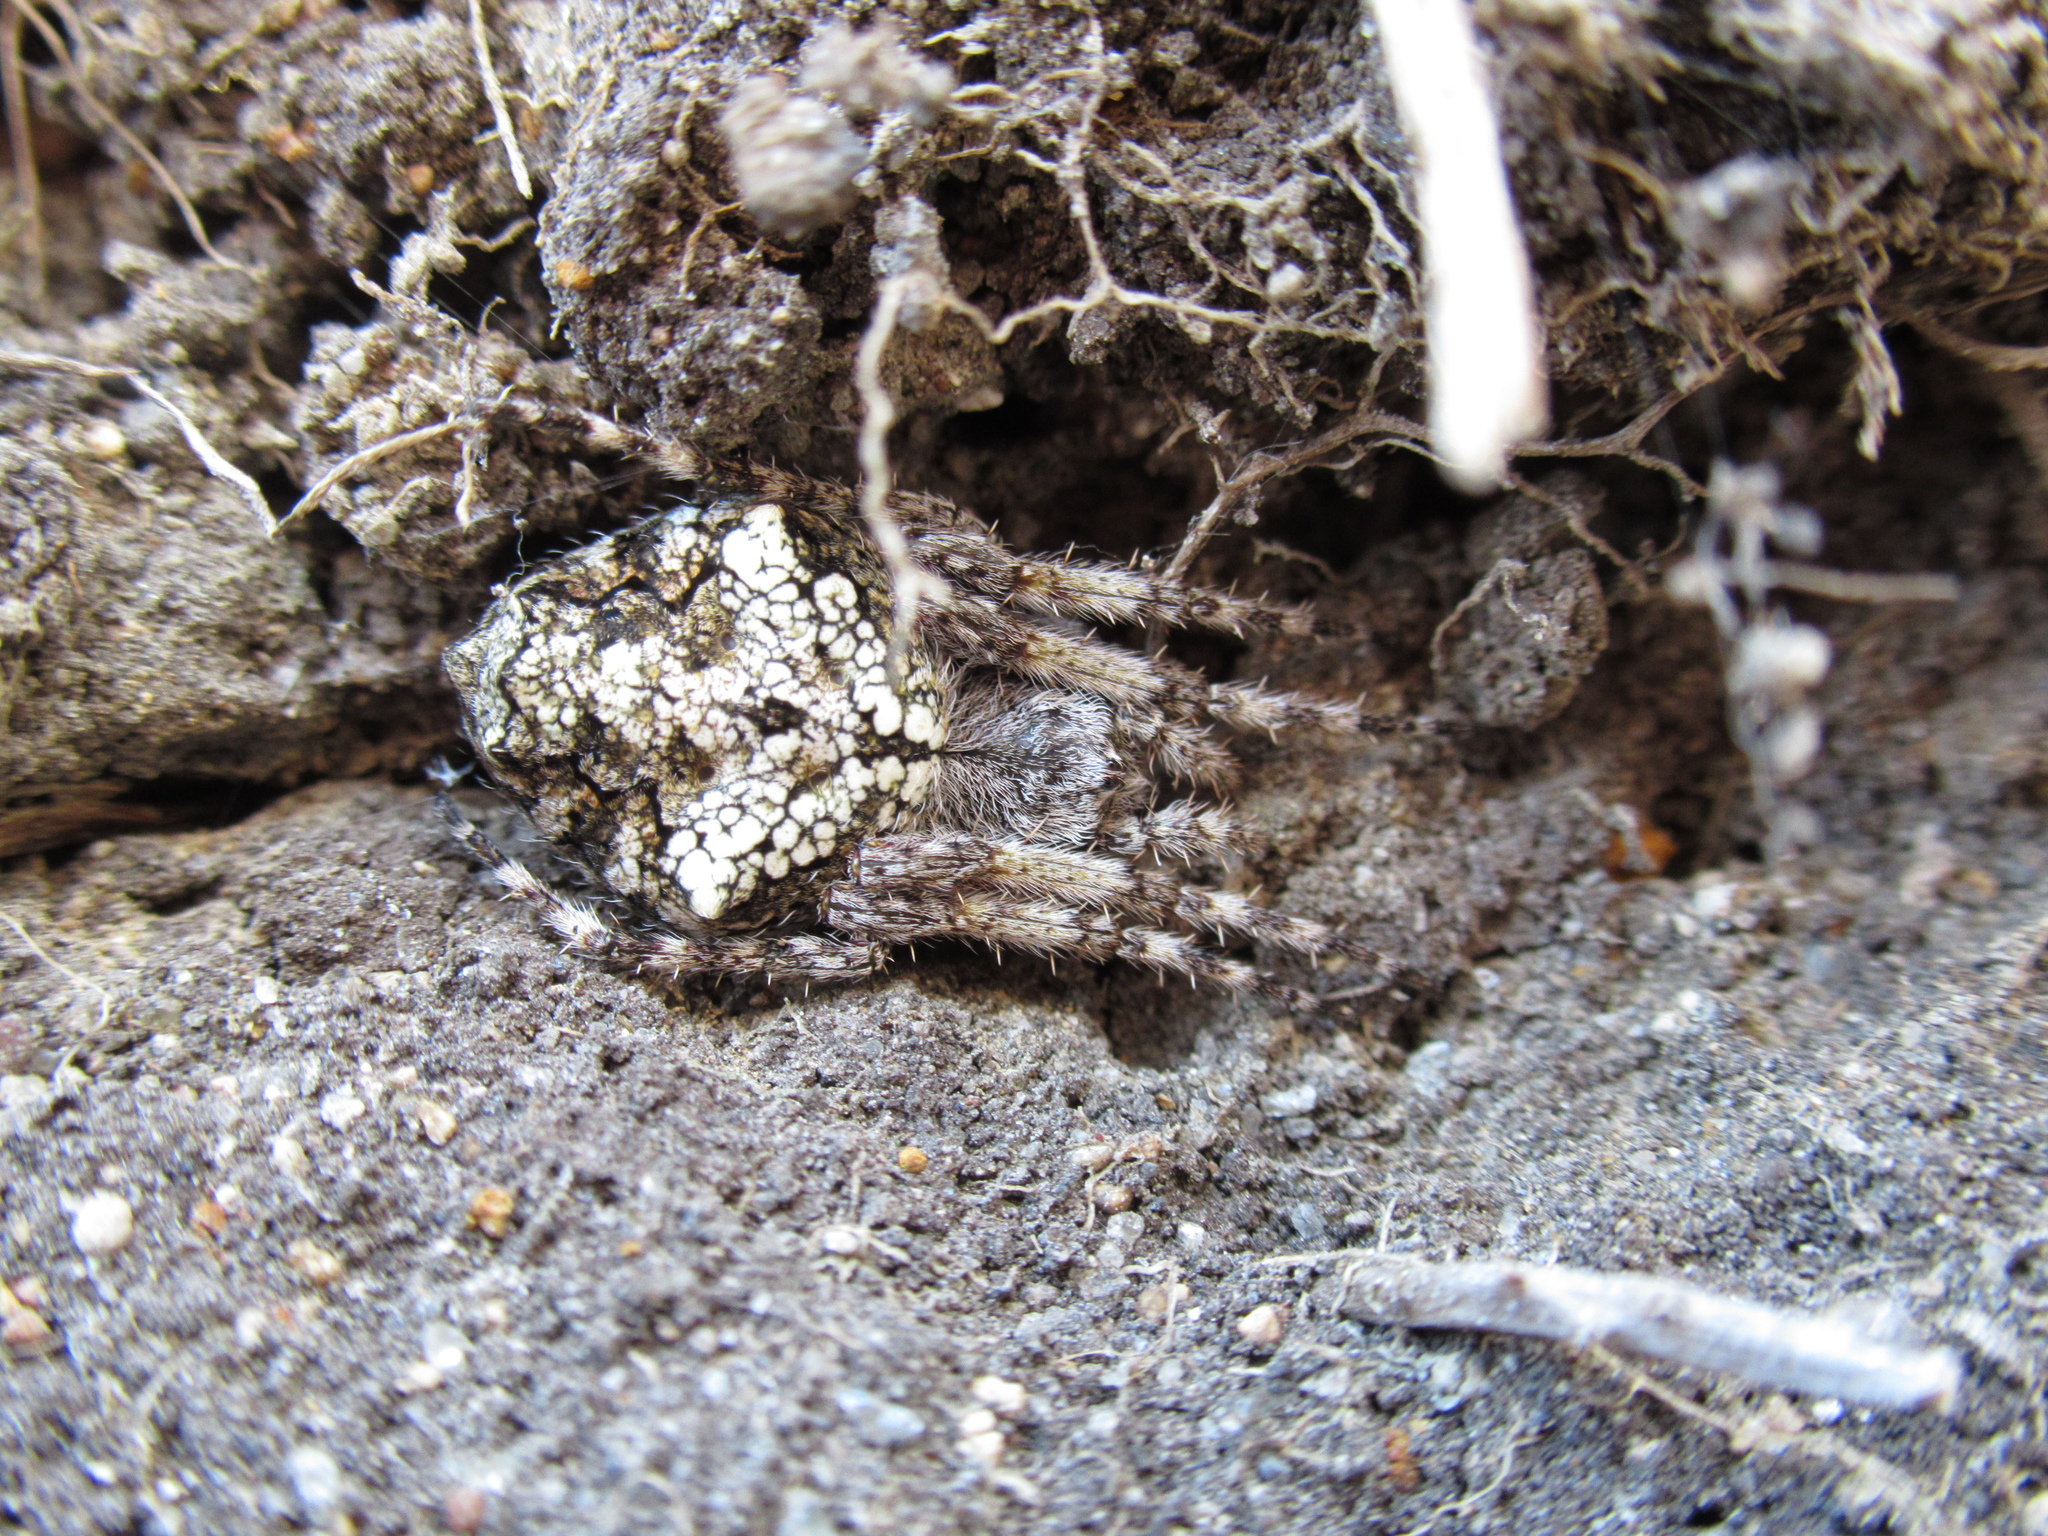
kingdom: Animalia
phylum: Arthropoda
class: Arachnida
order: Araneae
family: Araneidae
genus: Eriophora
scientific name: Eriophora pustulosa
